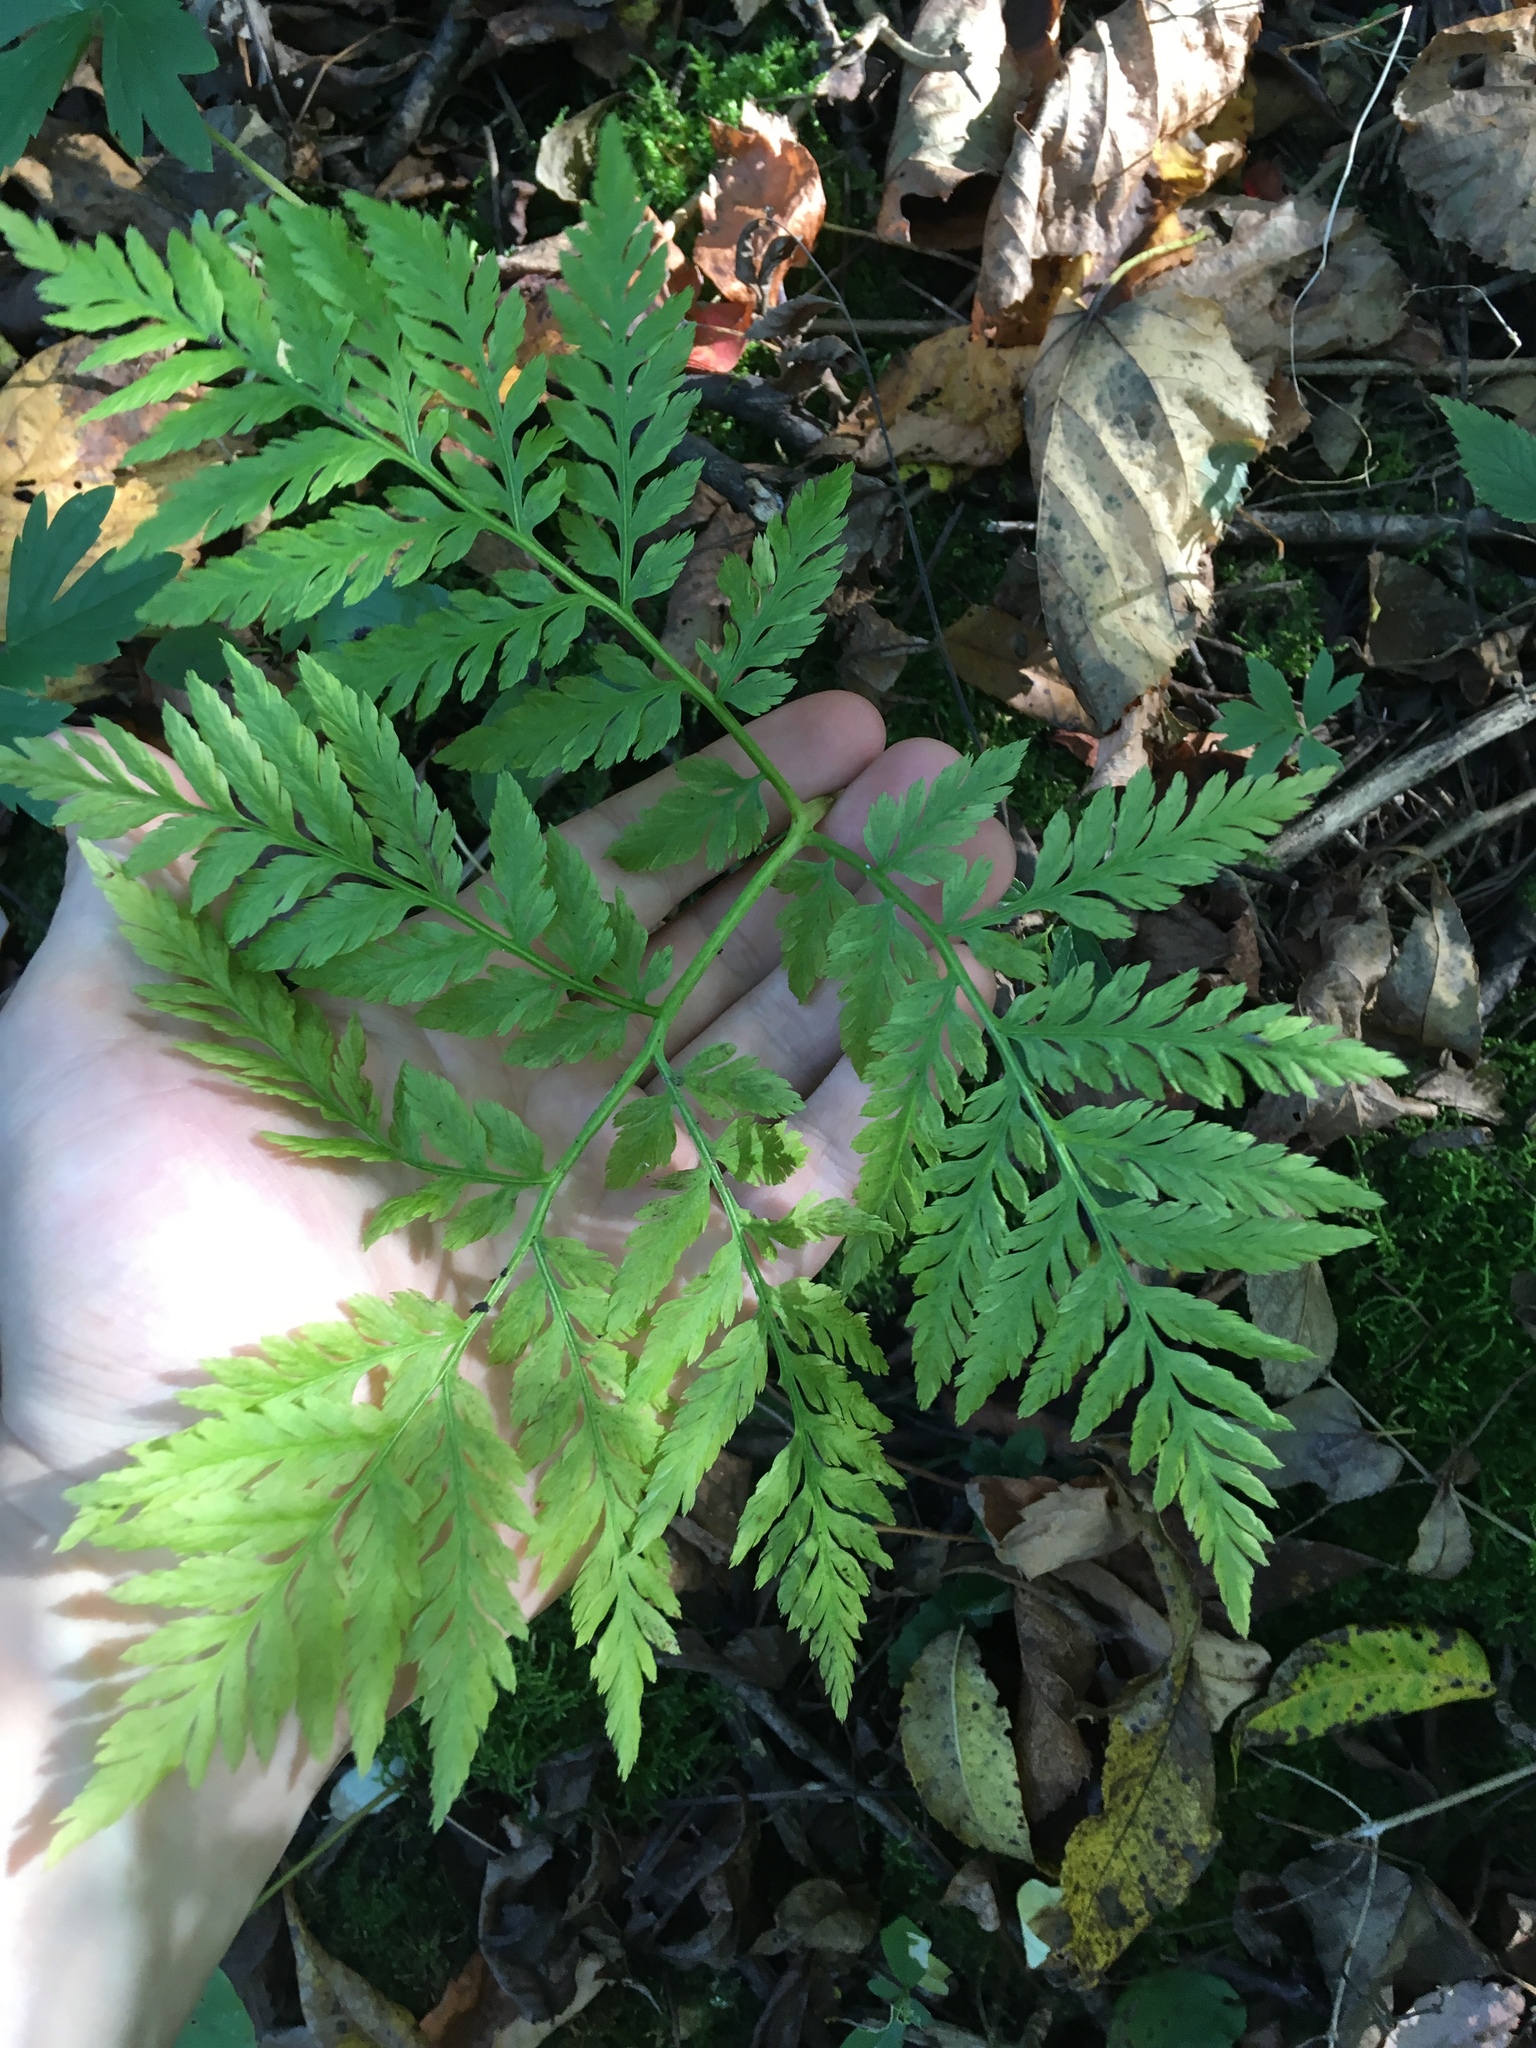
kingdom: Plantae
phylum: Tracheophyta
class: Polypodiopsida
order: Ophioglossales
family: Ophioglossaceae
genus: Botrypus
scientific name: Botrypus virginianus
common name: Common grapefern
